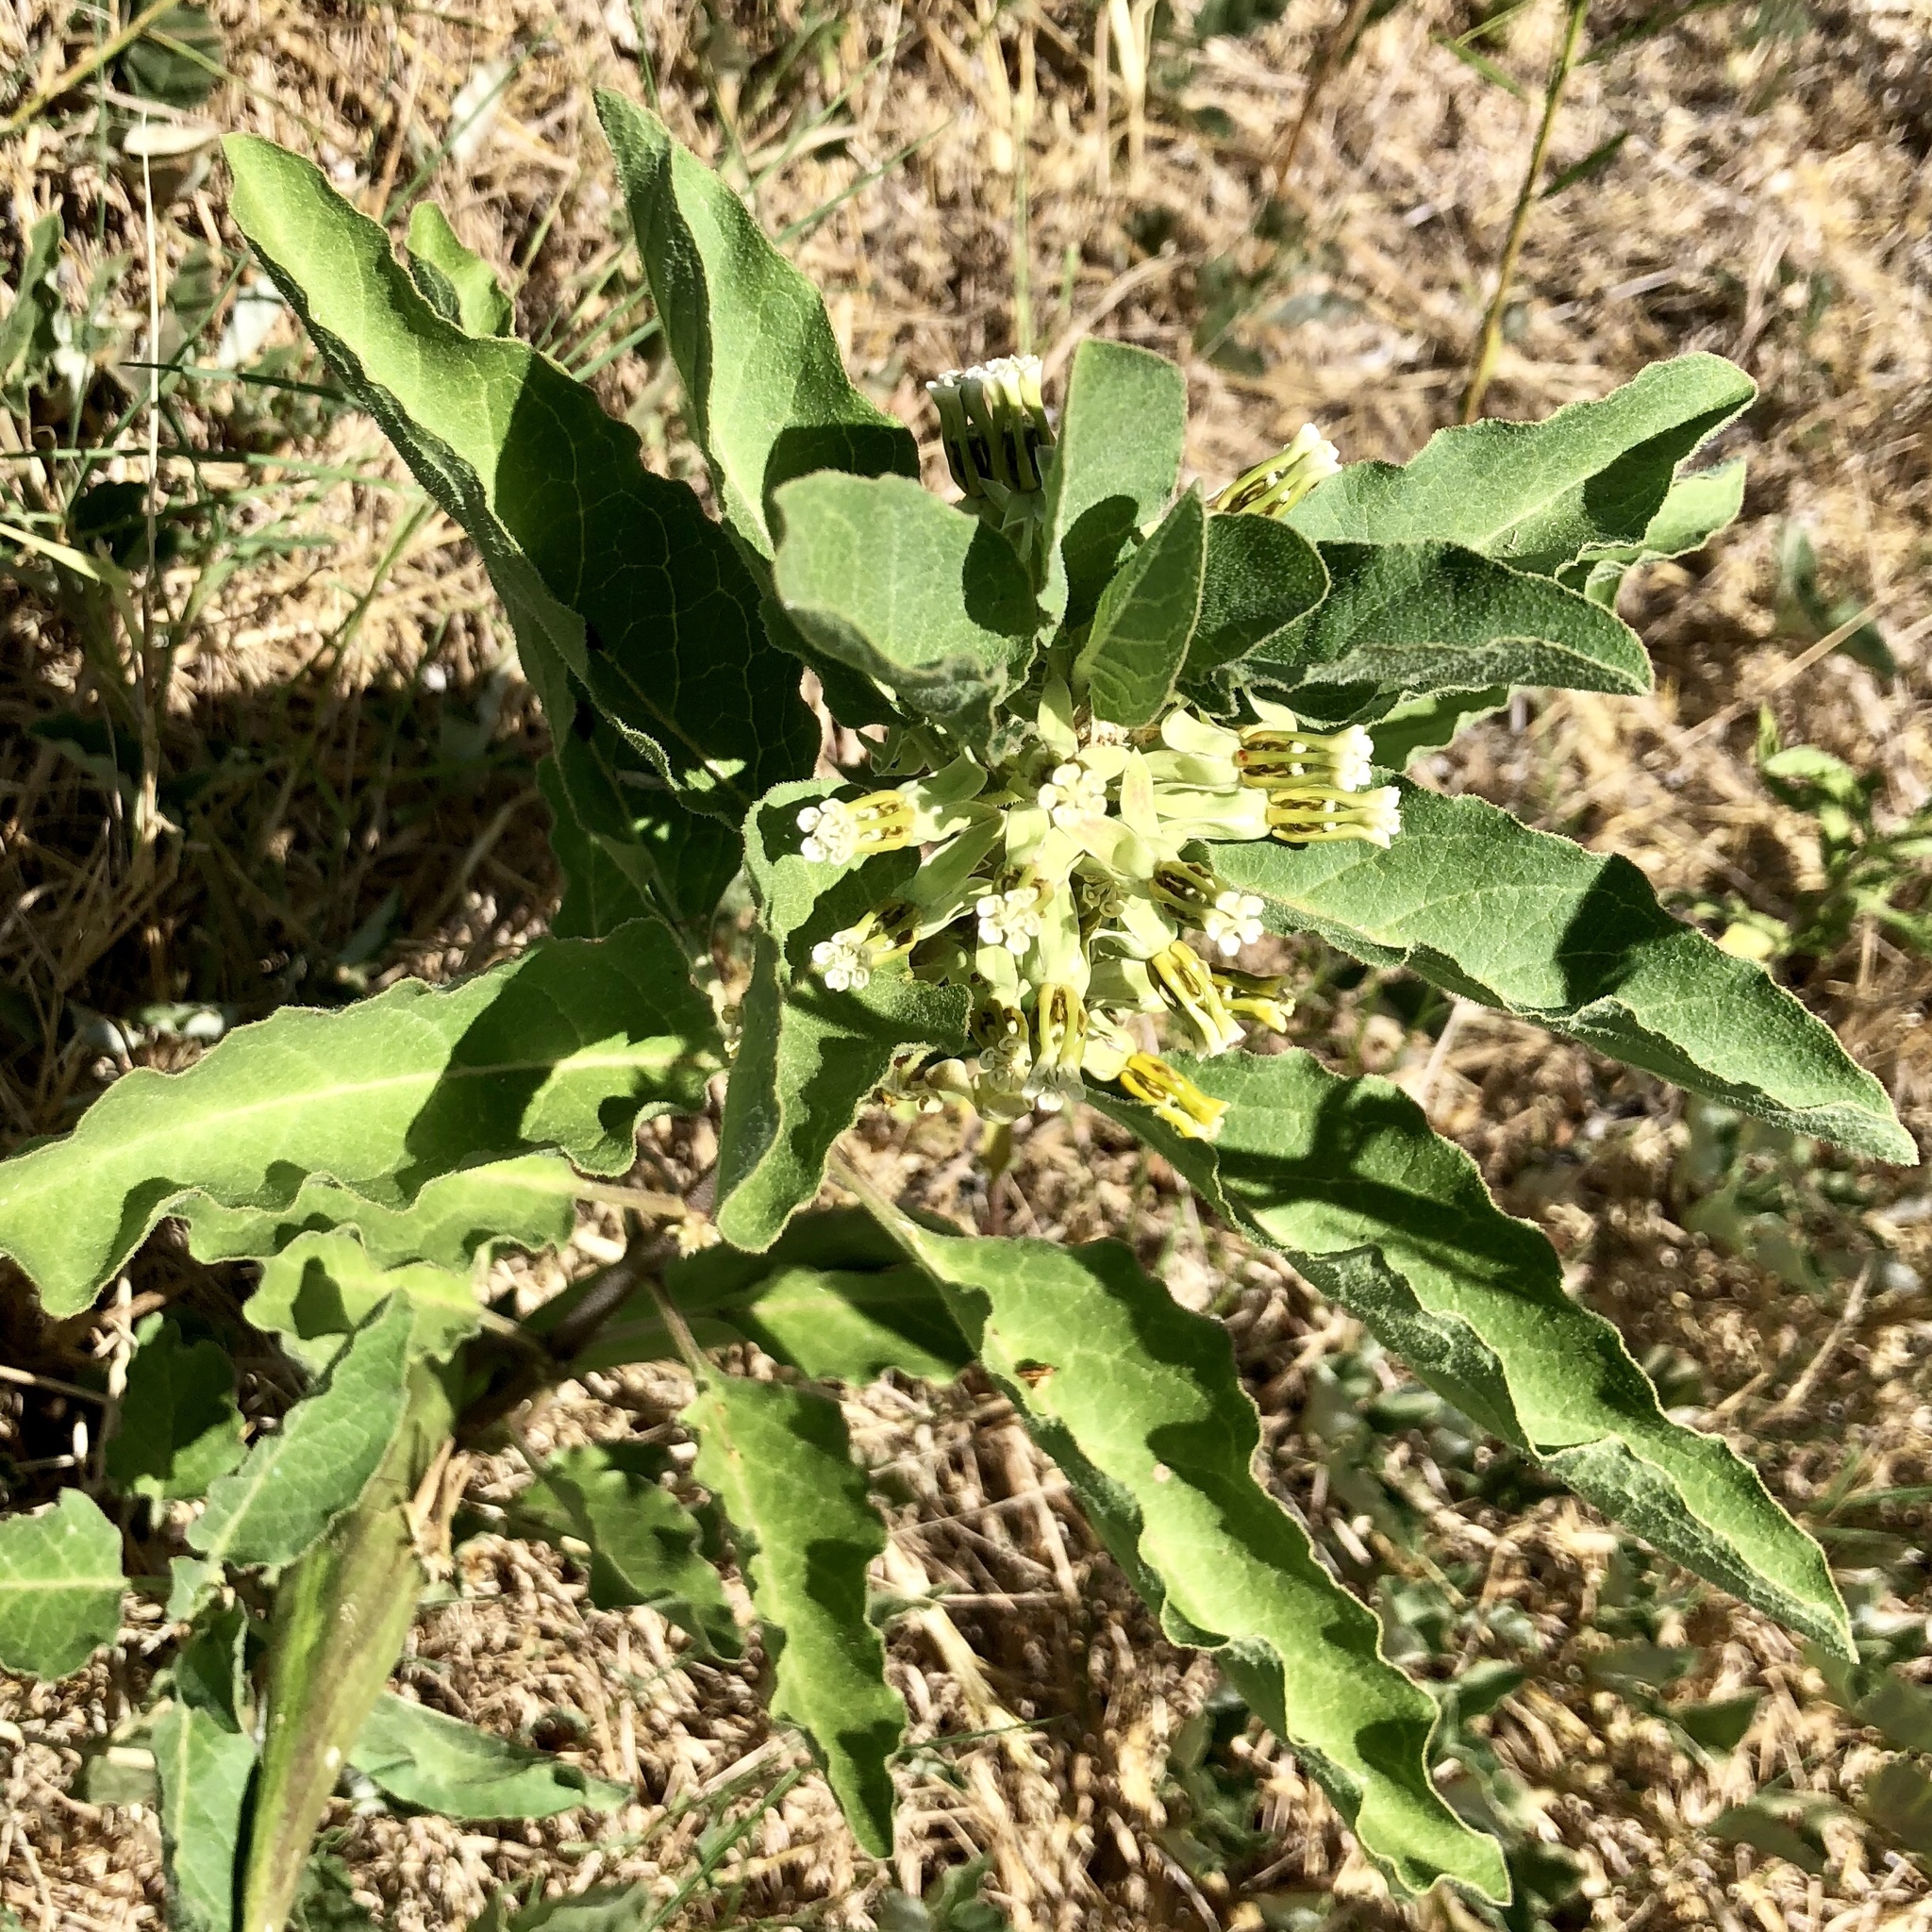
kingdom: Plantae
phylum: Tracheophyta
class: Magnoliopsida
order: Gentianales
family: Apocynaceae
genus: Asclepias
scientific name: Asclepias oenotheroides
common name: Zizotes milkweed
